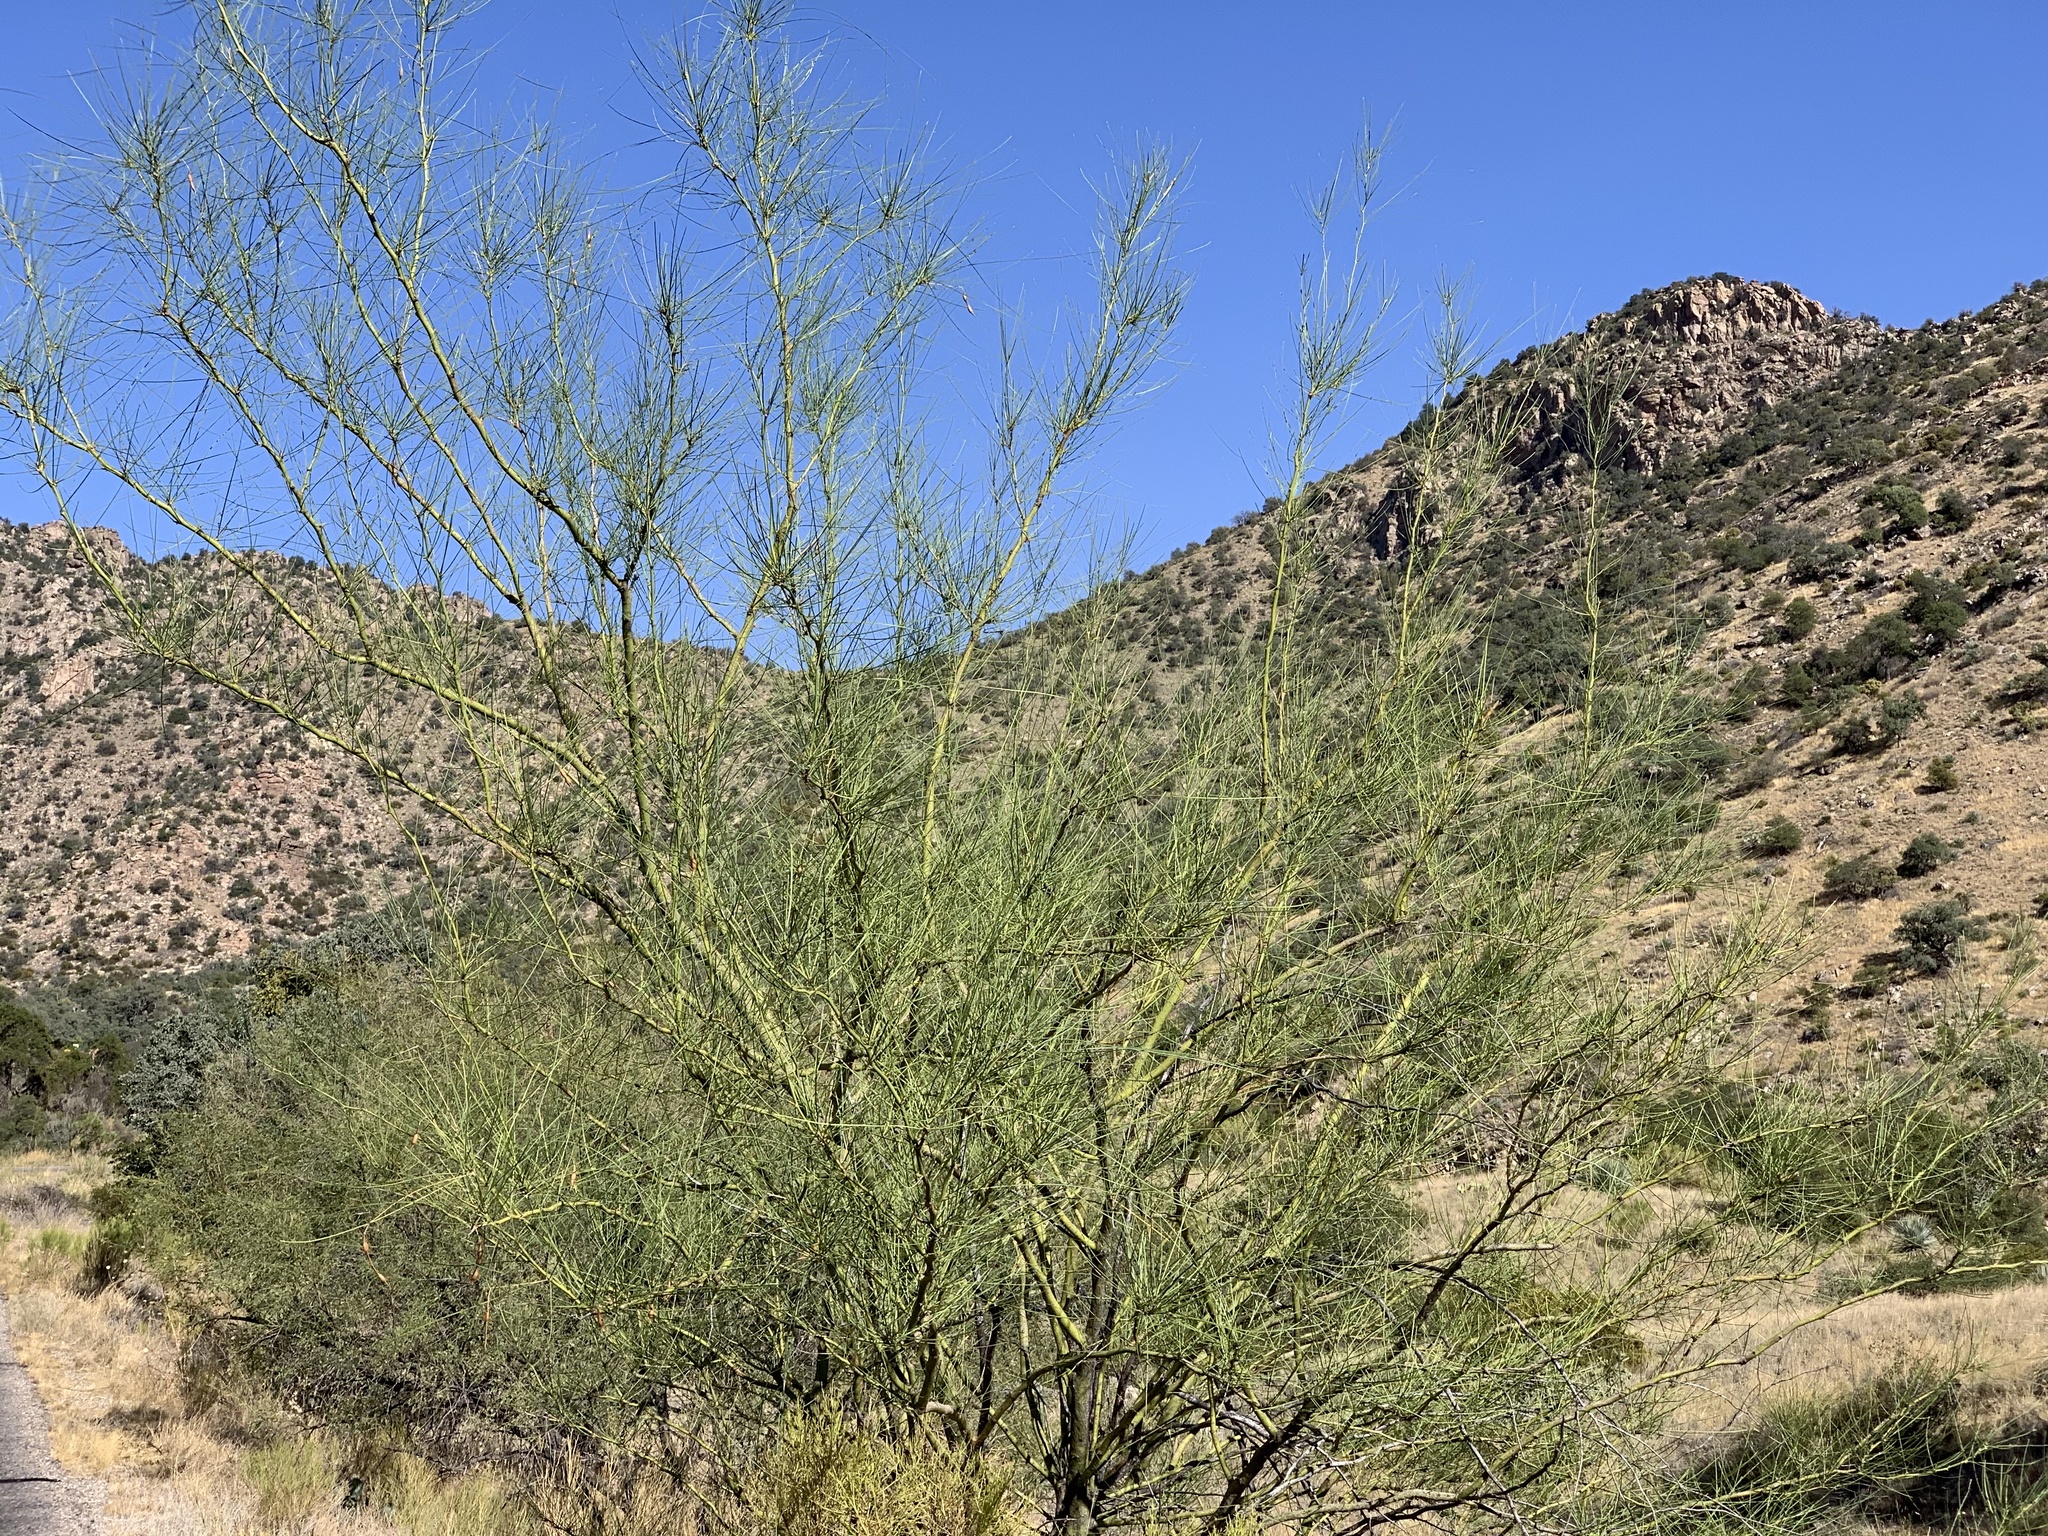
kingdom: Plantae
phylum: Tracheophyta
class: Magnoliopsida
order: Fabales
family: Fabaceae
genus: Parkinsonia
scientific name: Parkinsonia aculeata
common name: Jerusalem thorn
